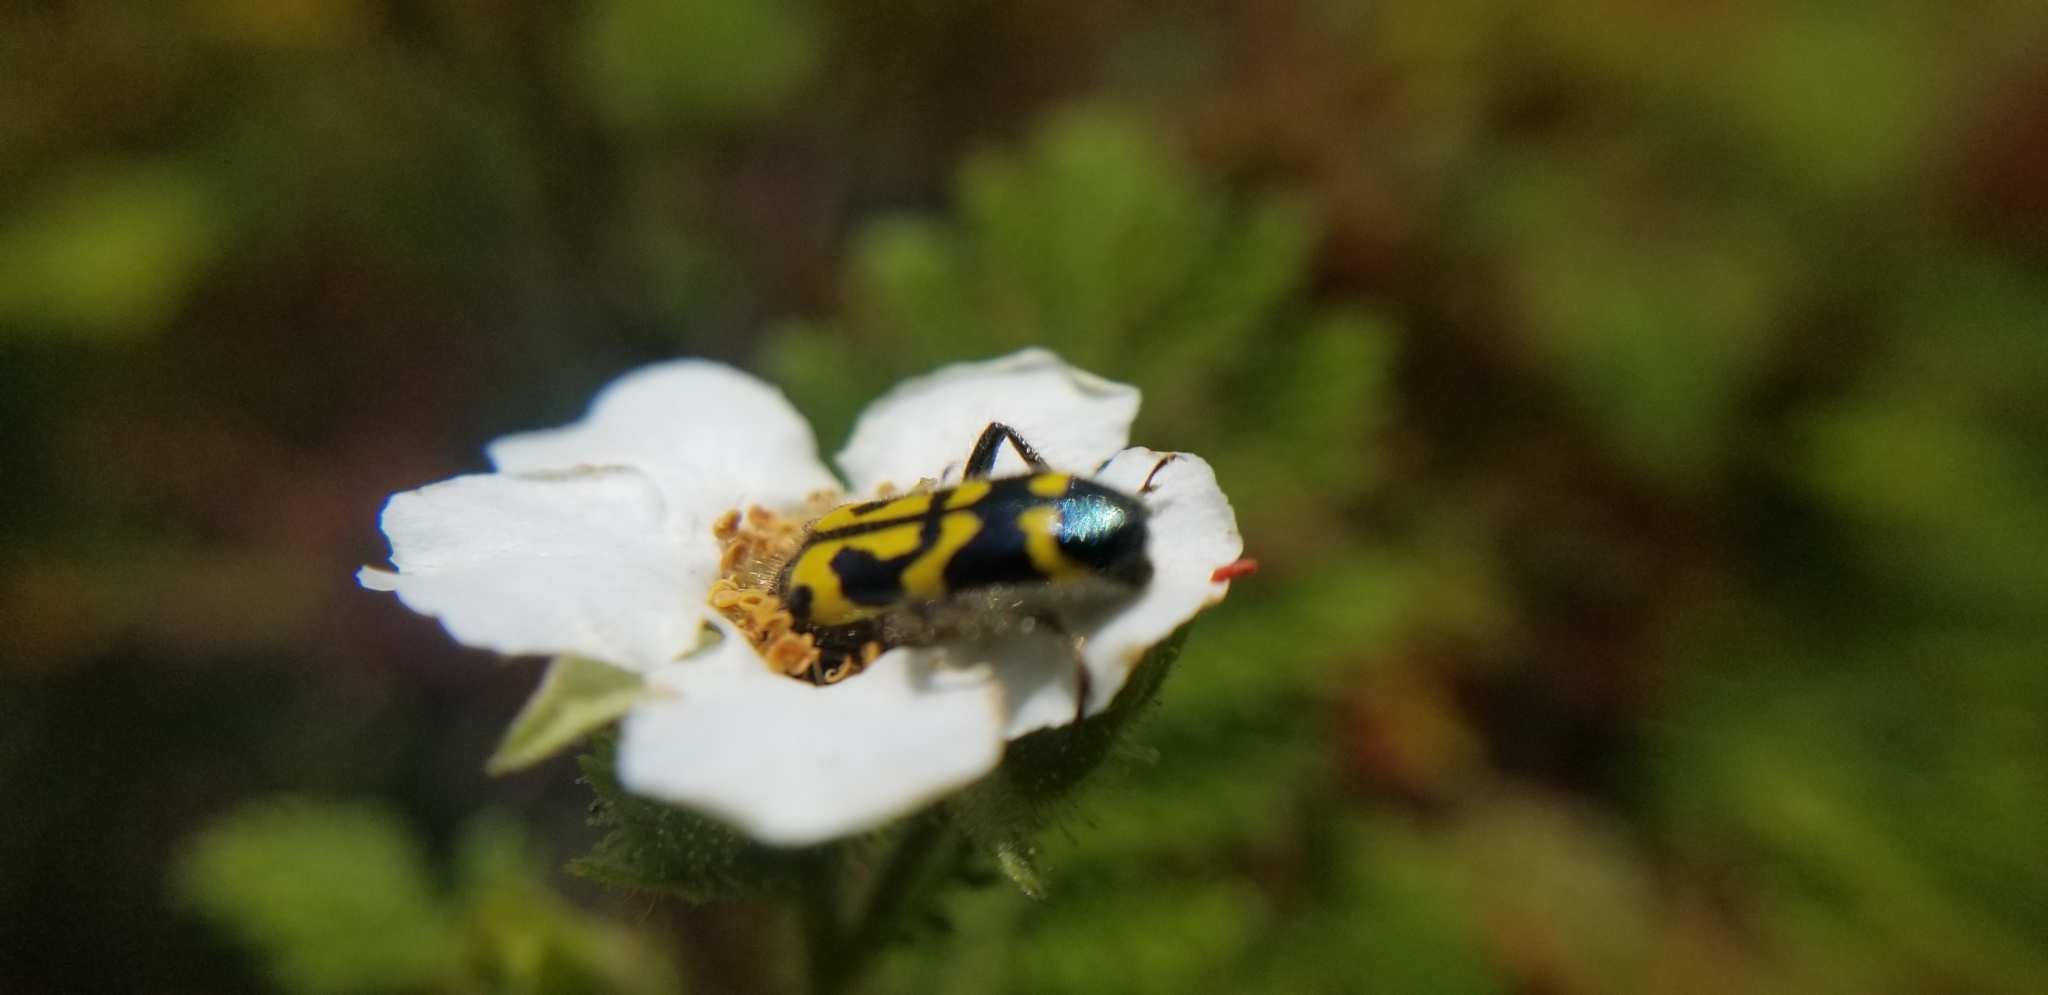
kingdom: Animalia
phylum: Arthropoda
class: Insecta
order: Coleoptera
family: Cleridae
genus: Trichodes
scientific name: Trichodes ornatus
